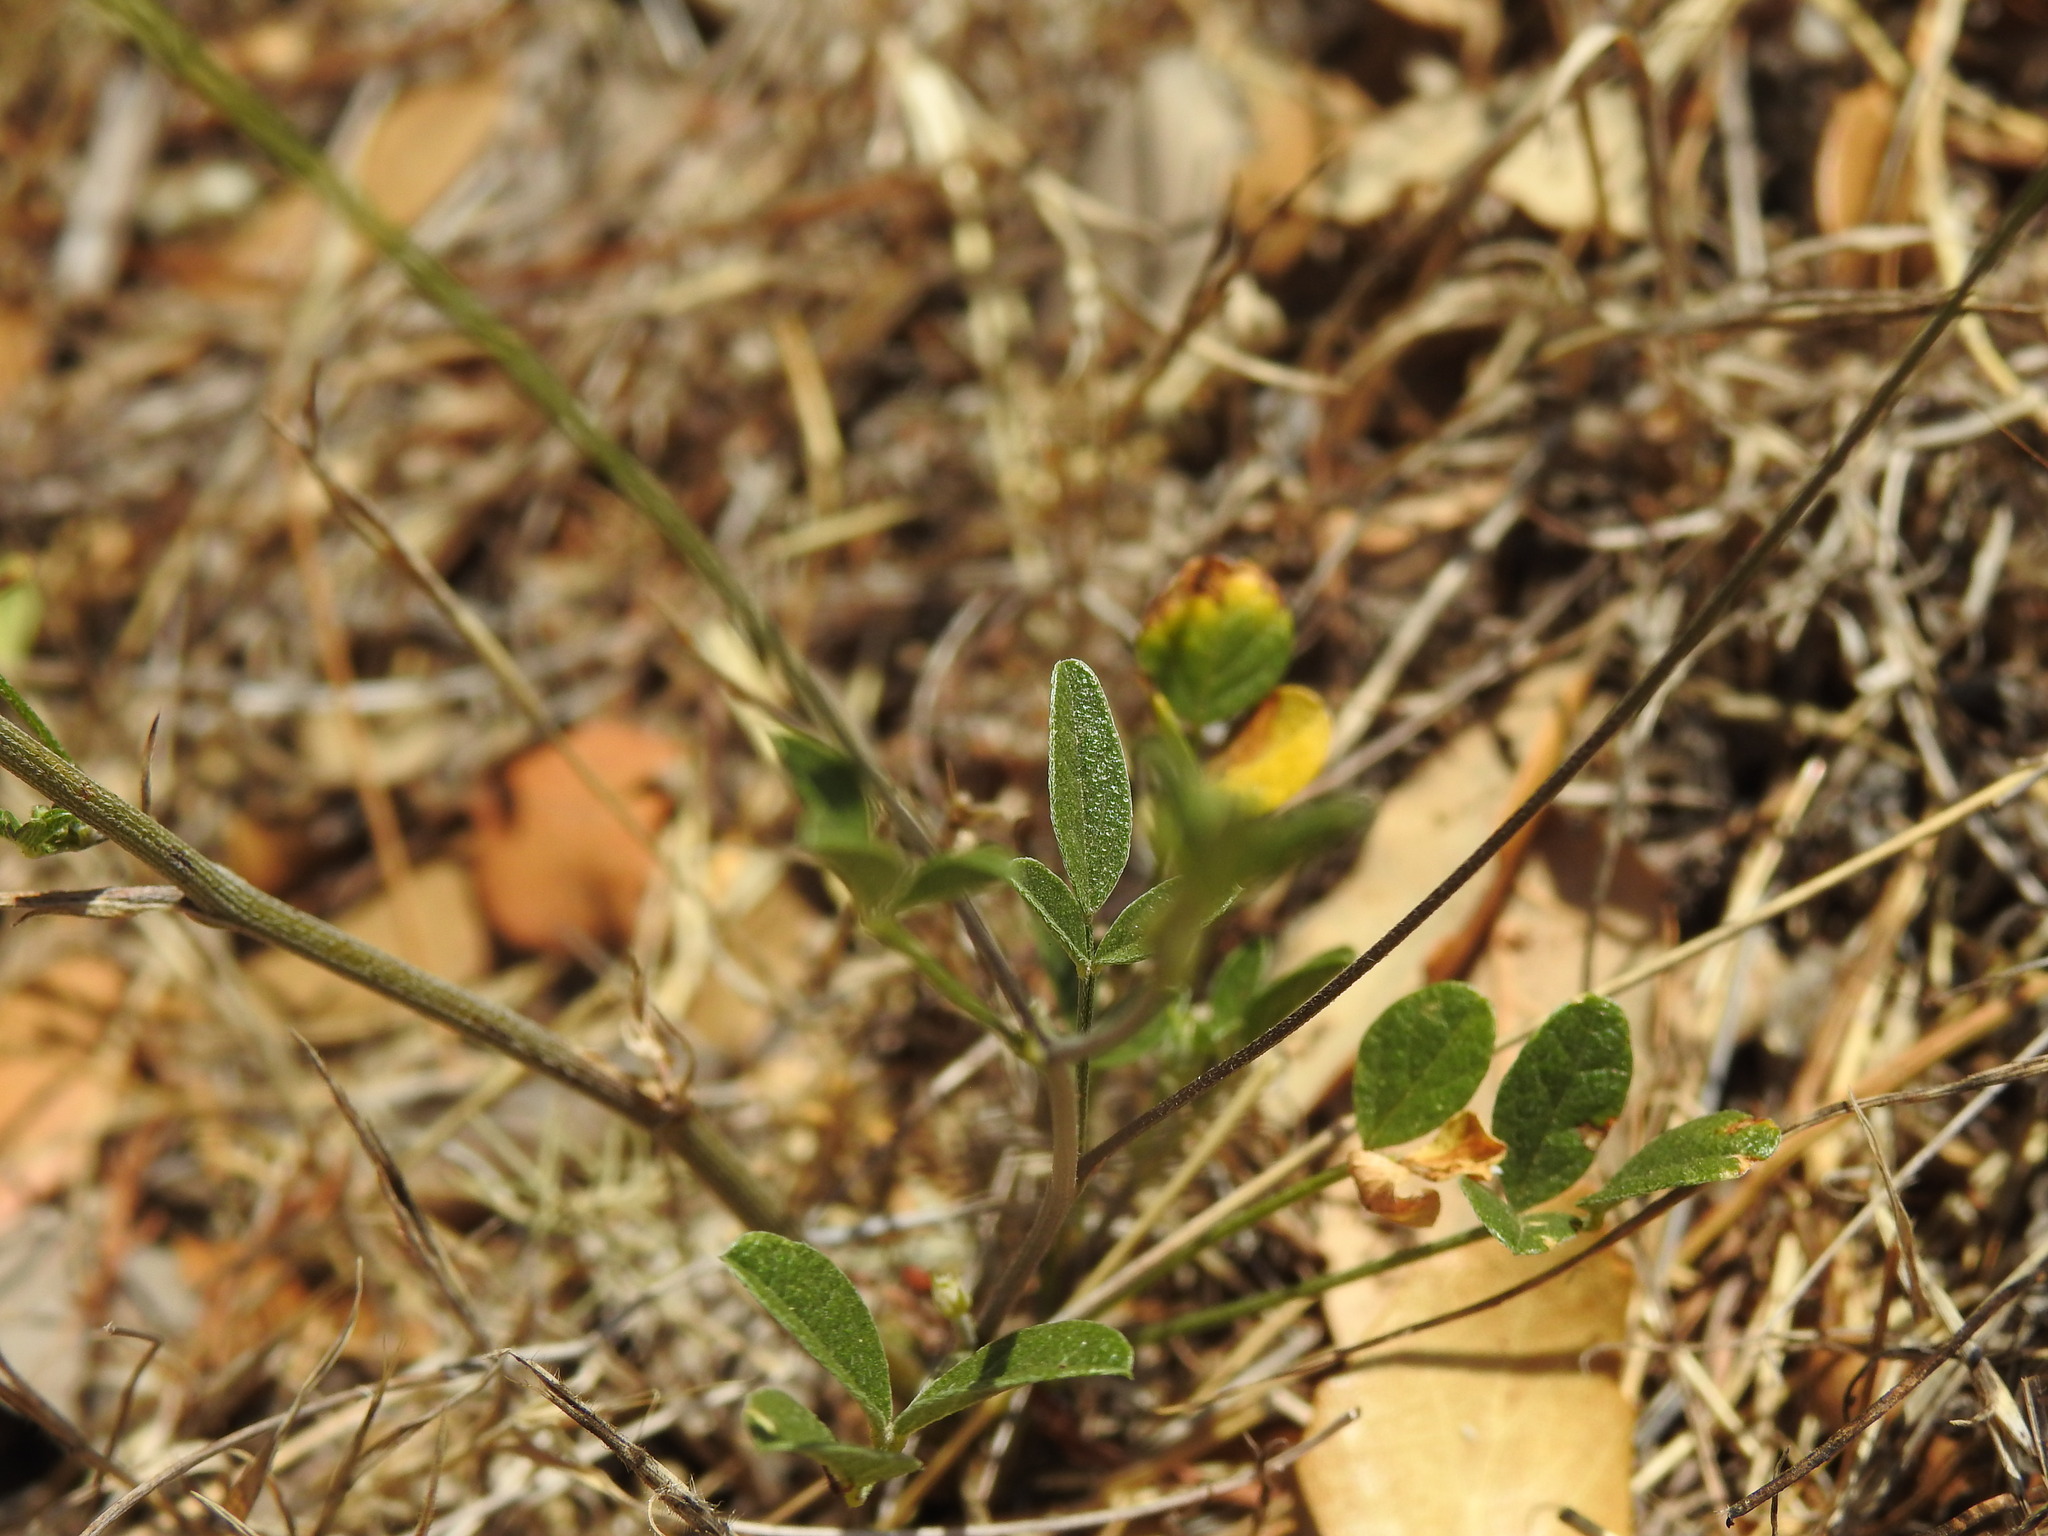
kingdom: Plantae
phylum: Tracheophyta
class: Magnoliopsida
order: Fabales
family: Fabaceae
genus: Bituminaria
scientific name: Bituminaria bituminosa
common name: Arabian pea
